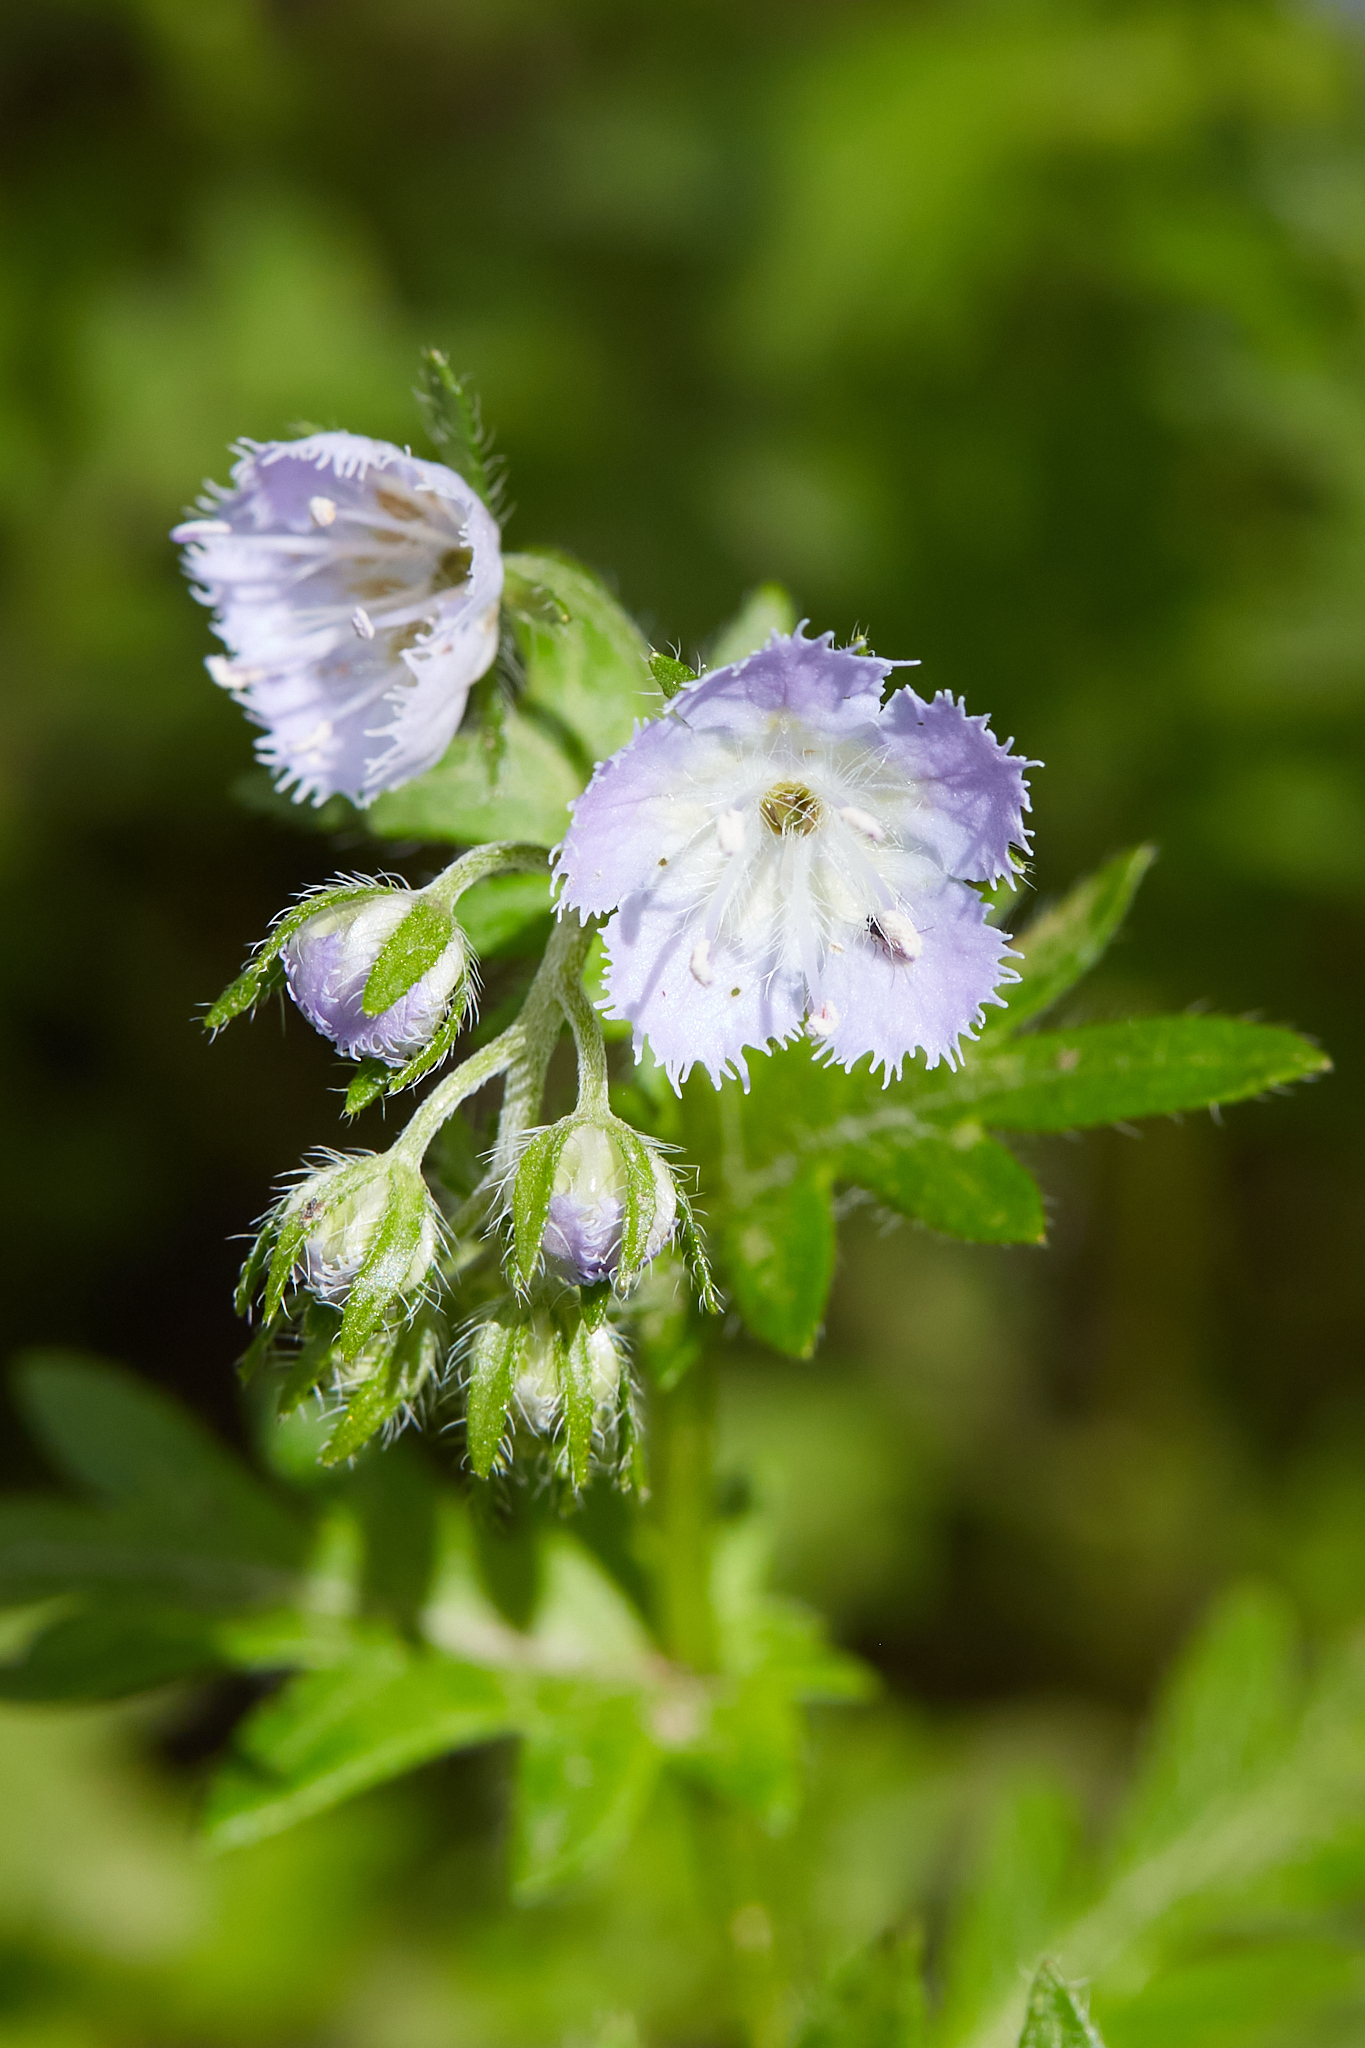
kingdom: Plantae
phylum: Tracheophyta
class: Magnoliopsida
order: Boraginales
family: Hydrophyllaceae
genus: Phacelia
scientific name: Phacelia purshii
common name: Miami-mist
